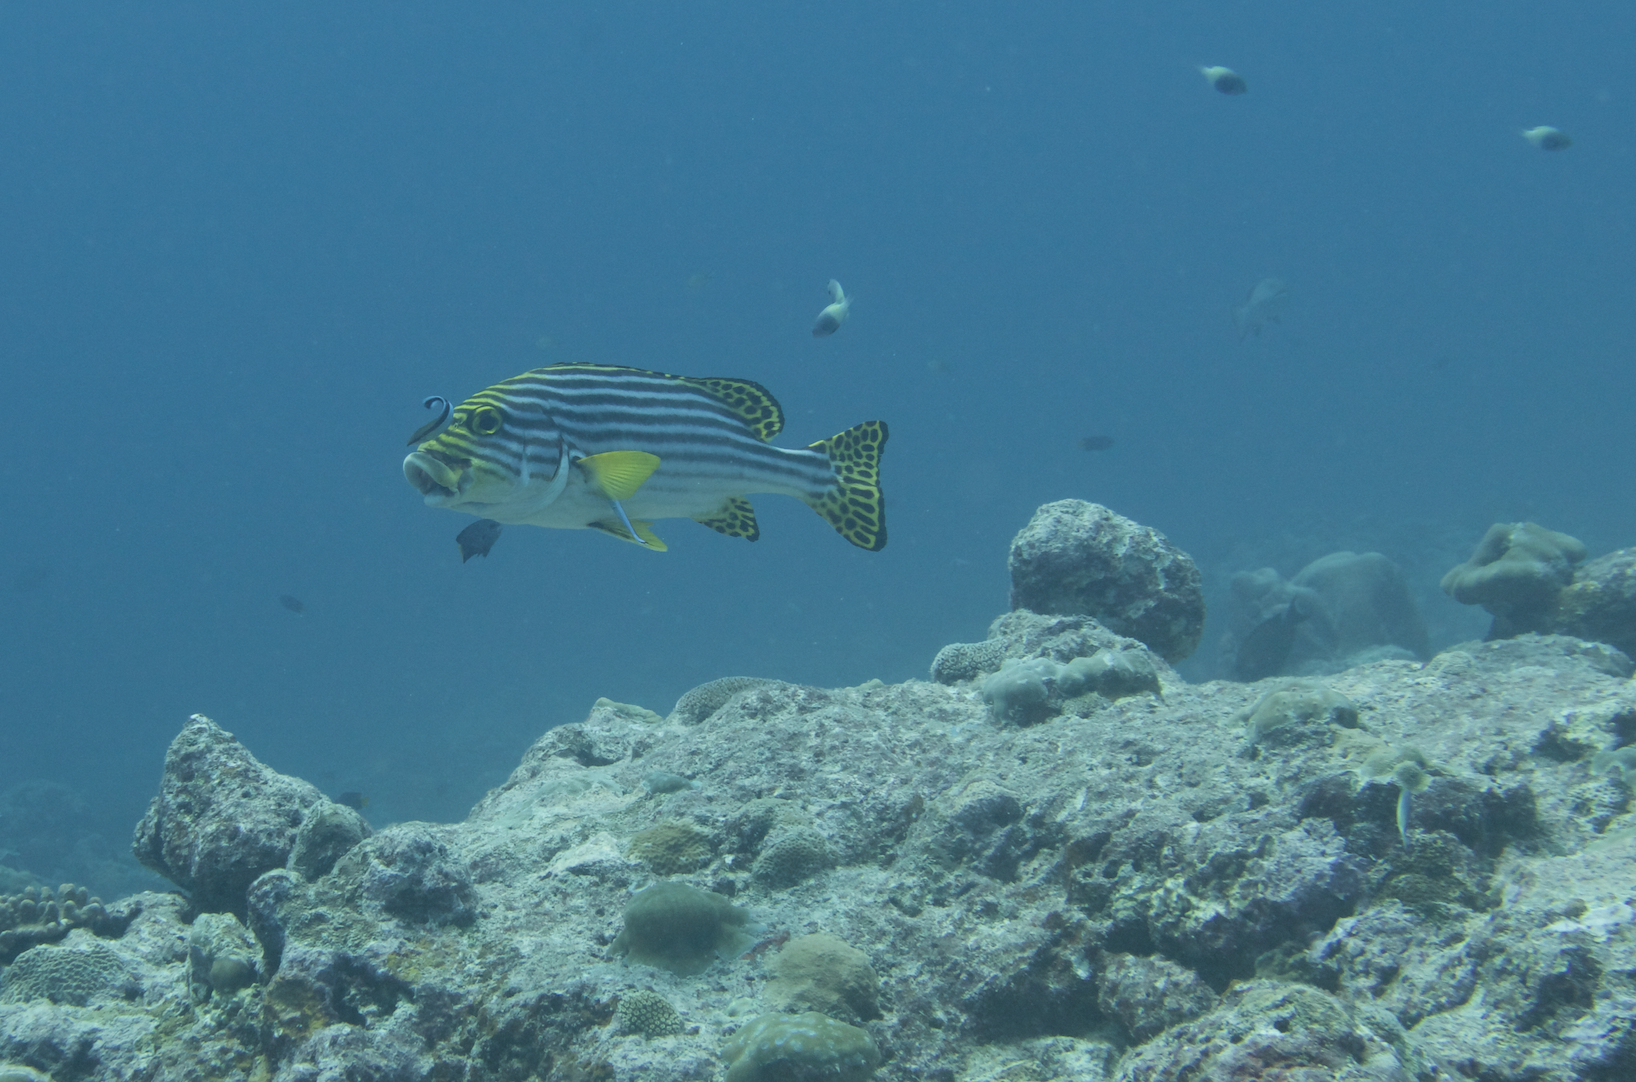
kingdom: Animalia
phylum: Chordata
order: Perciformes
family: Haemulidae
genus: Plectorhinchus
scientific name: Plectorhinchus vittatus
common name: Oriental sweetlips
